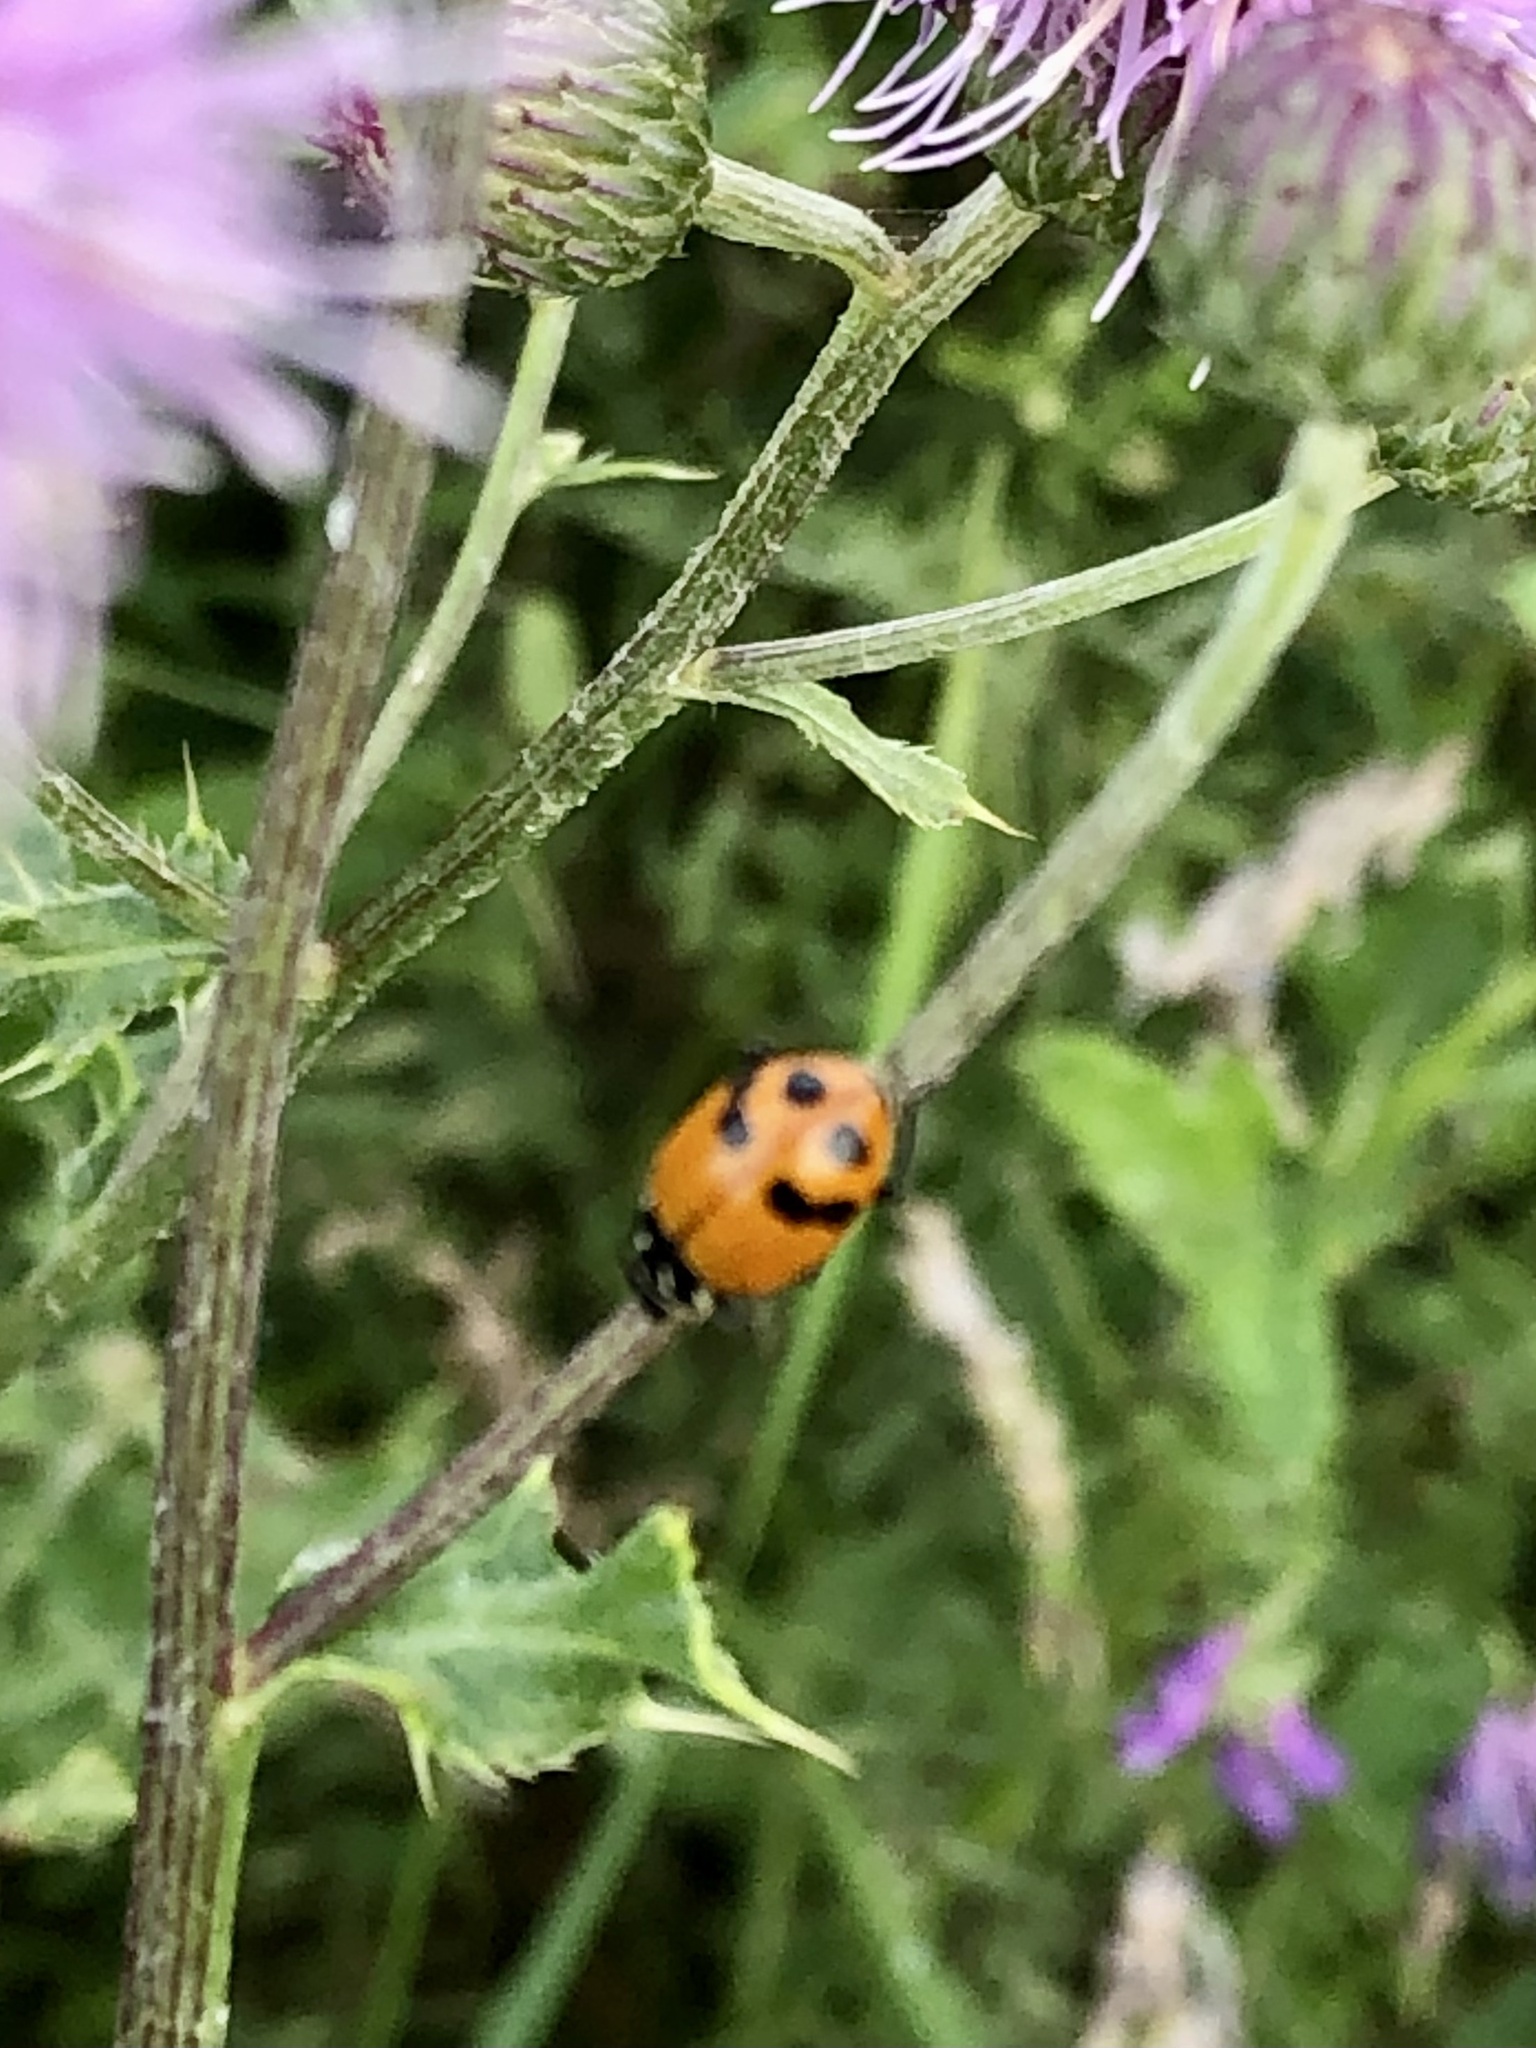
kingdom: Animalia
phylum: Arthropoda
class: Insecta
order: Coleoptera
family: Coccinellidae
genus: Hippodamia
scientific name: Hippodamia glacialis
